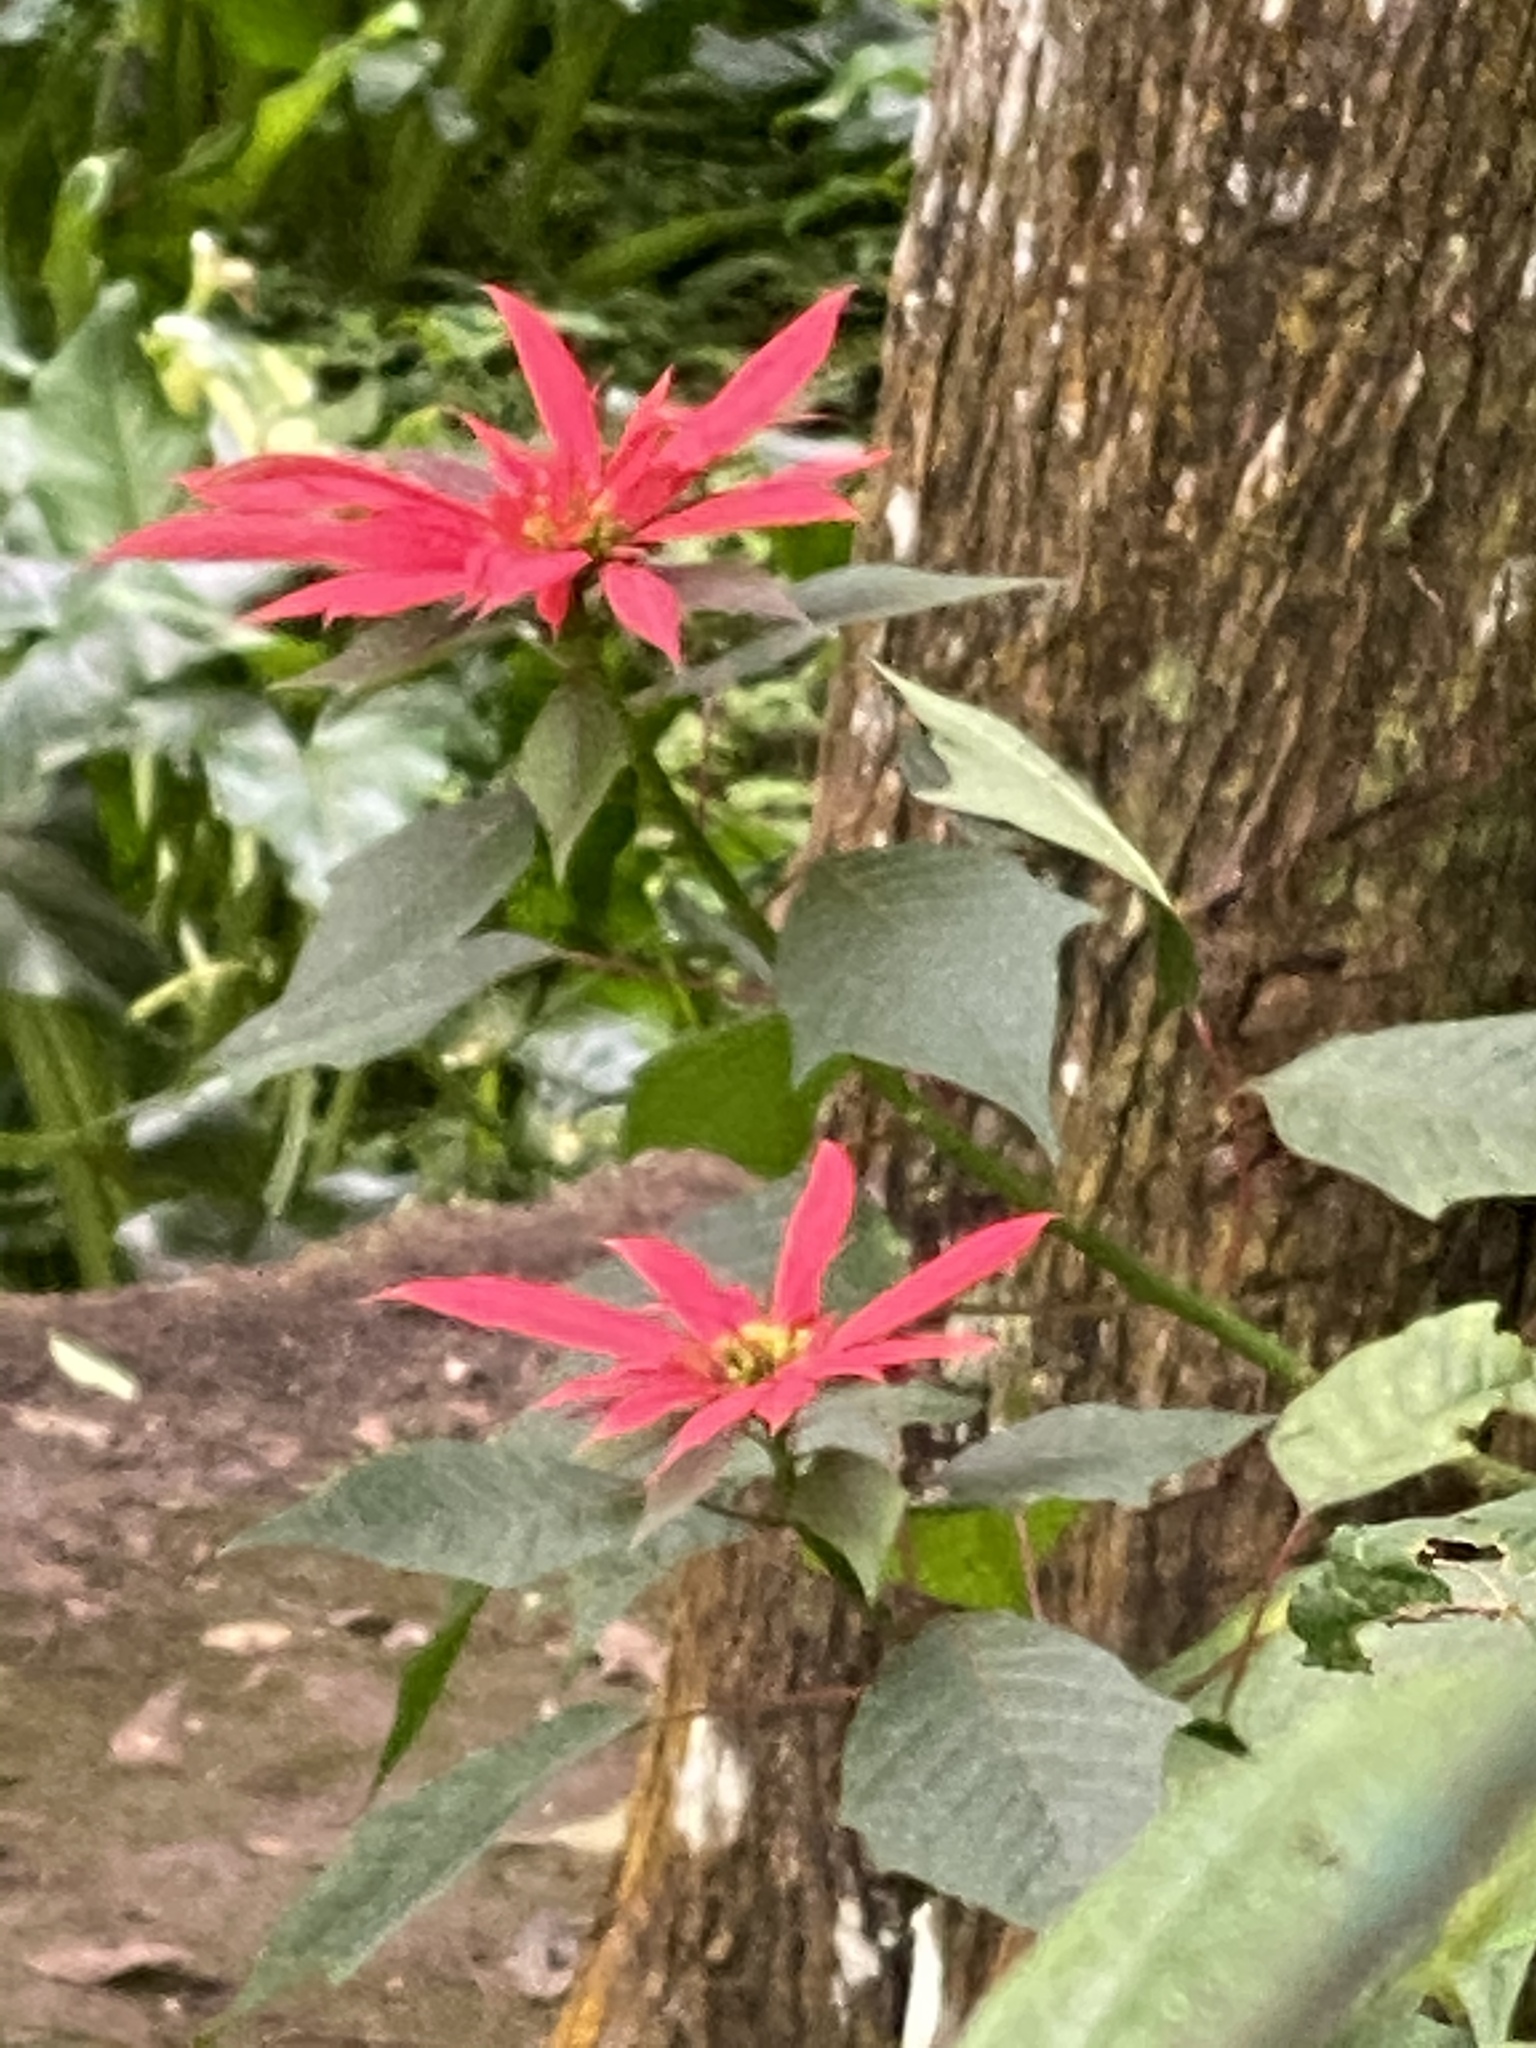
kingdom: Plantae
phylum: Tracheophyta
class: Magnoliopsida
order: Malpighiales
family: Euphorbiaceae
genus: Euphorbia
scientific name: Euphorbia pulcherrima
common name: Christmas-flower
